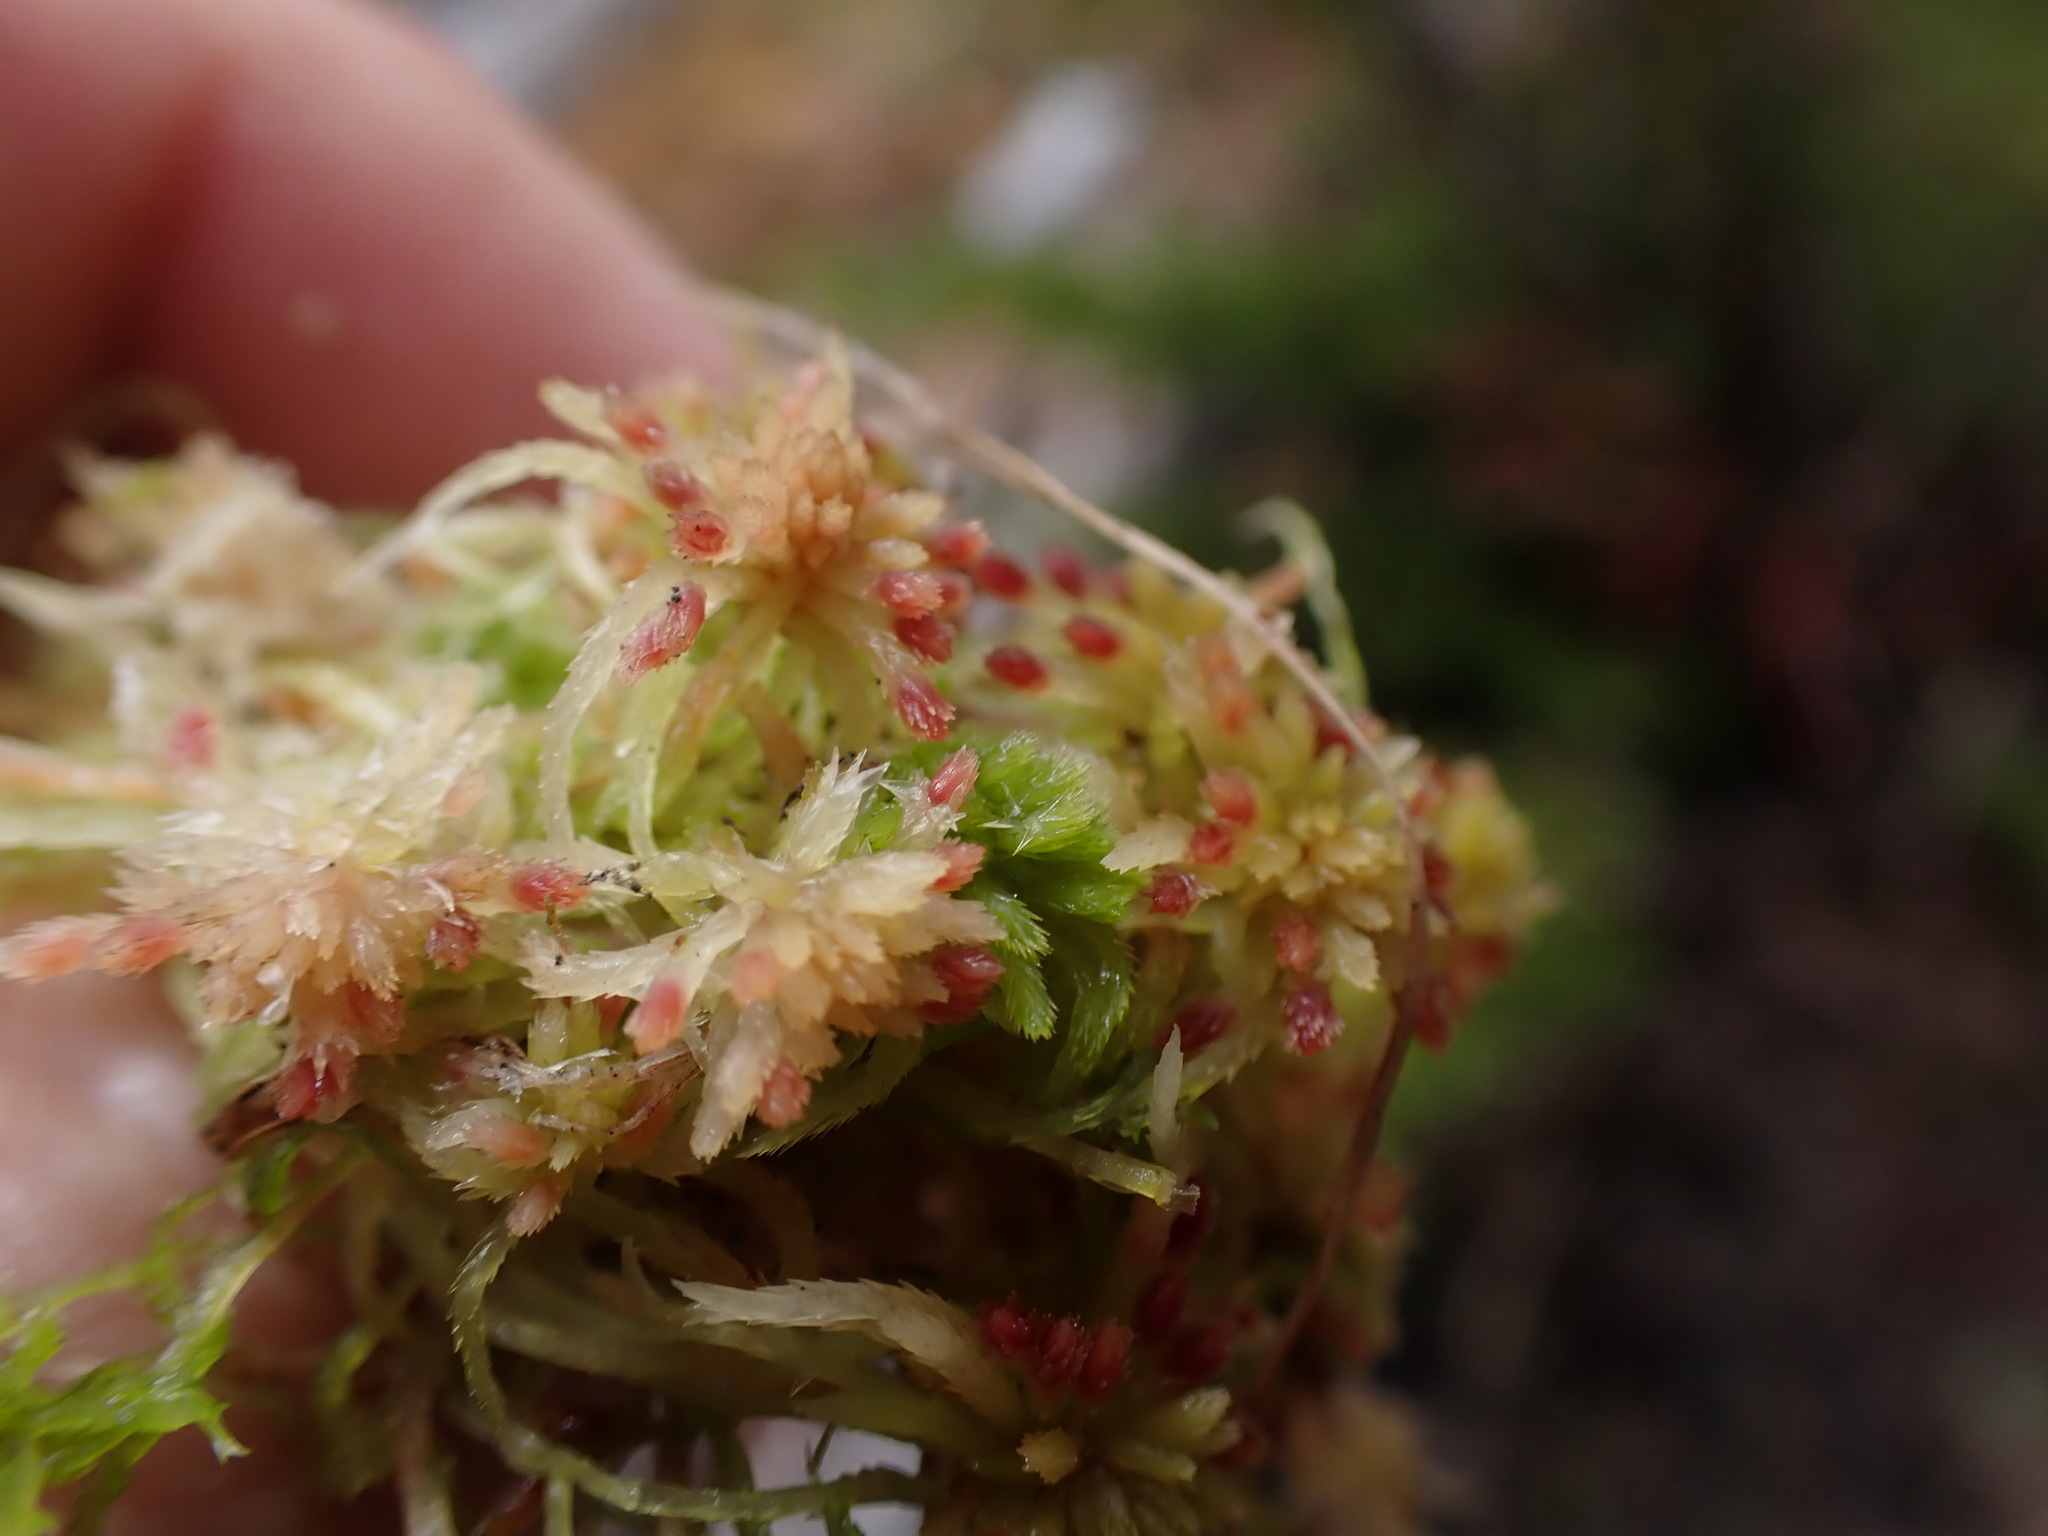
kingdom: Plantae
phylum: Bryophyta
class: Sphagnopsida
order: Sphagnales
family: Sphagnaceae
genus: Sphagnum
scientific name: Sphagnum russowii
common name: Russow's peat moss
